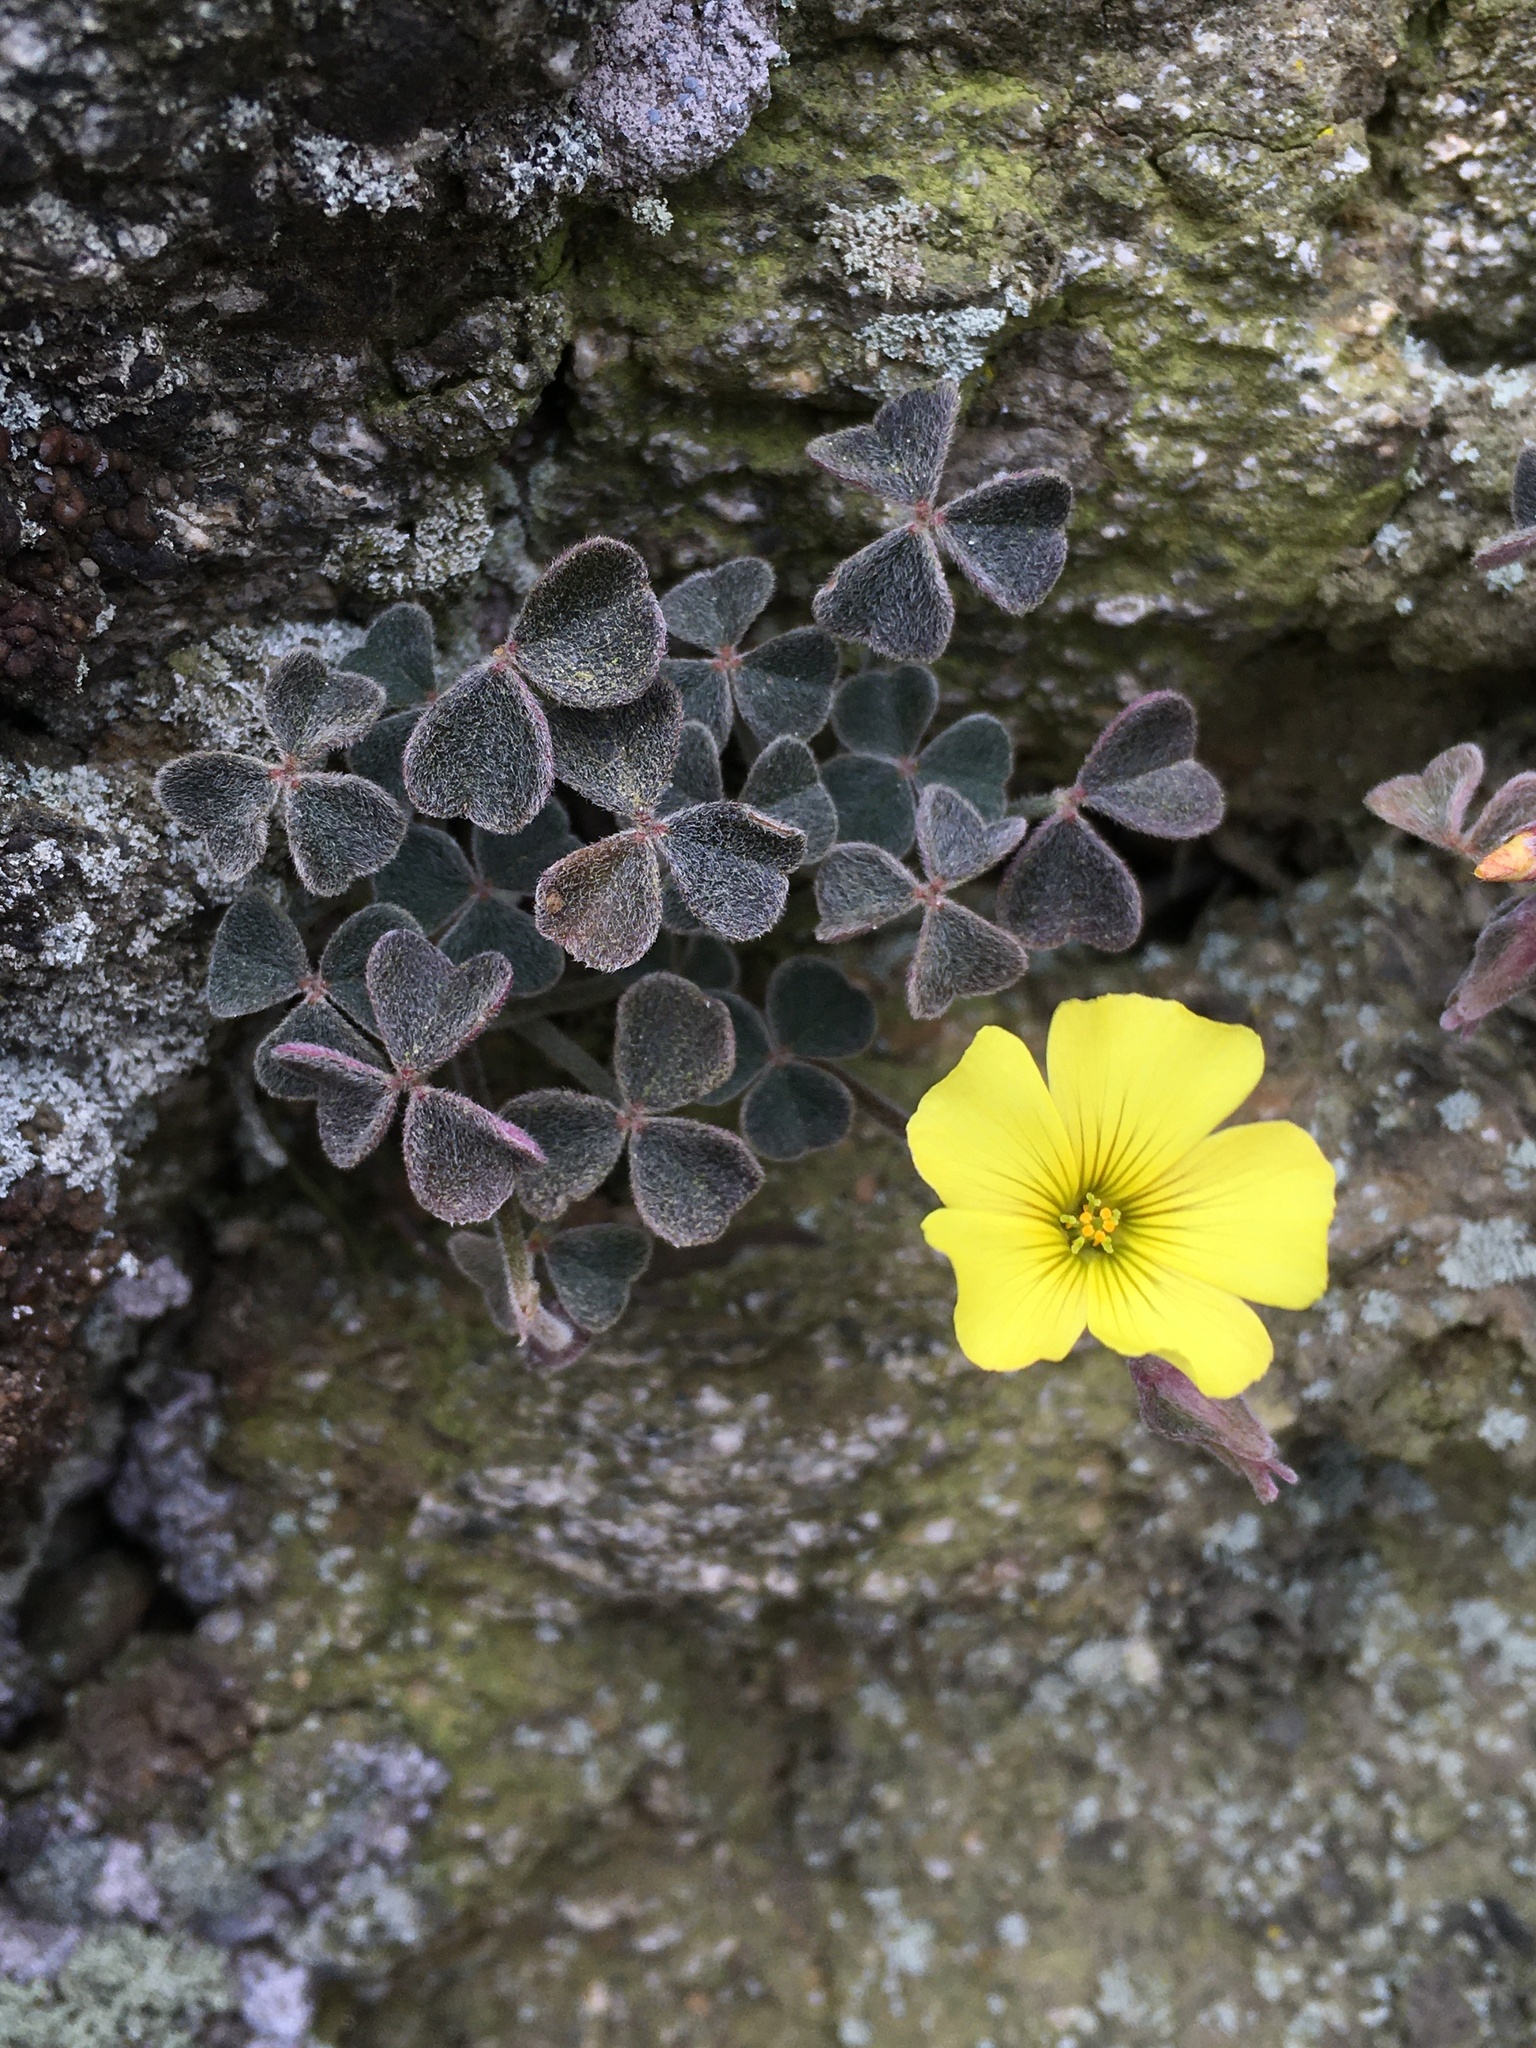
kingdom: Plantae
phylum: Tracheophyta
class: Magnoliopsida
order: Oxalidales
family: Oxalidaceae
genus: Oxalis
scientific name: Oxalis morenoensis
